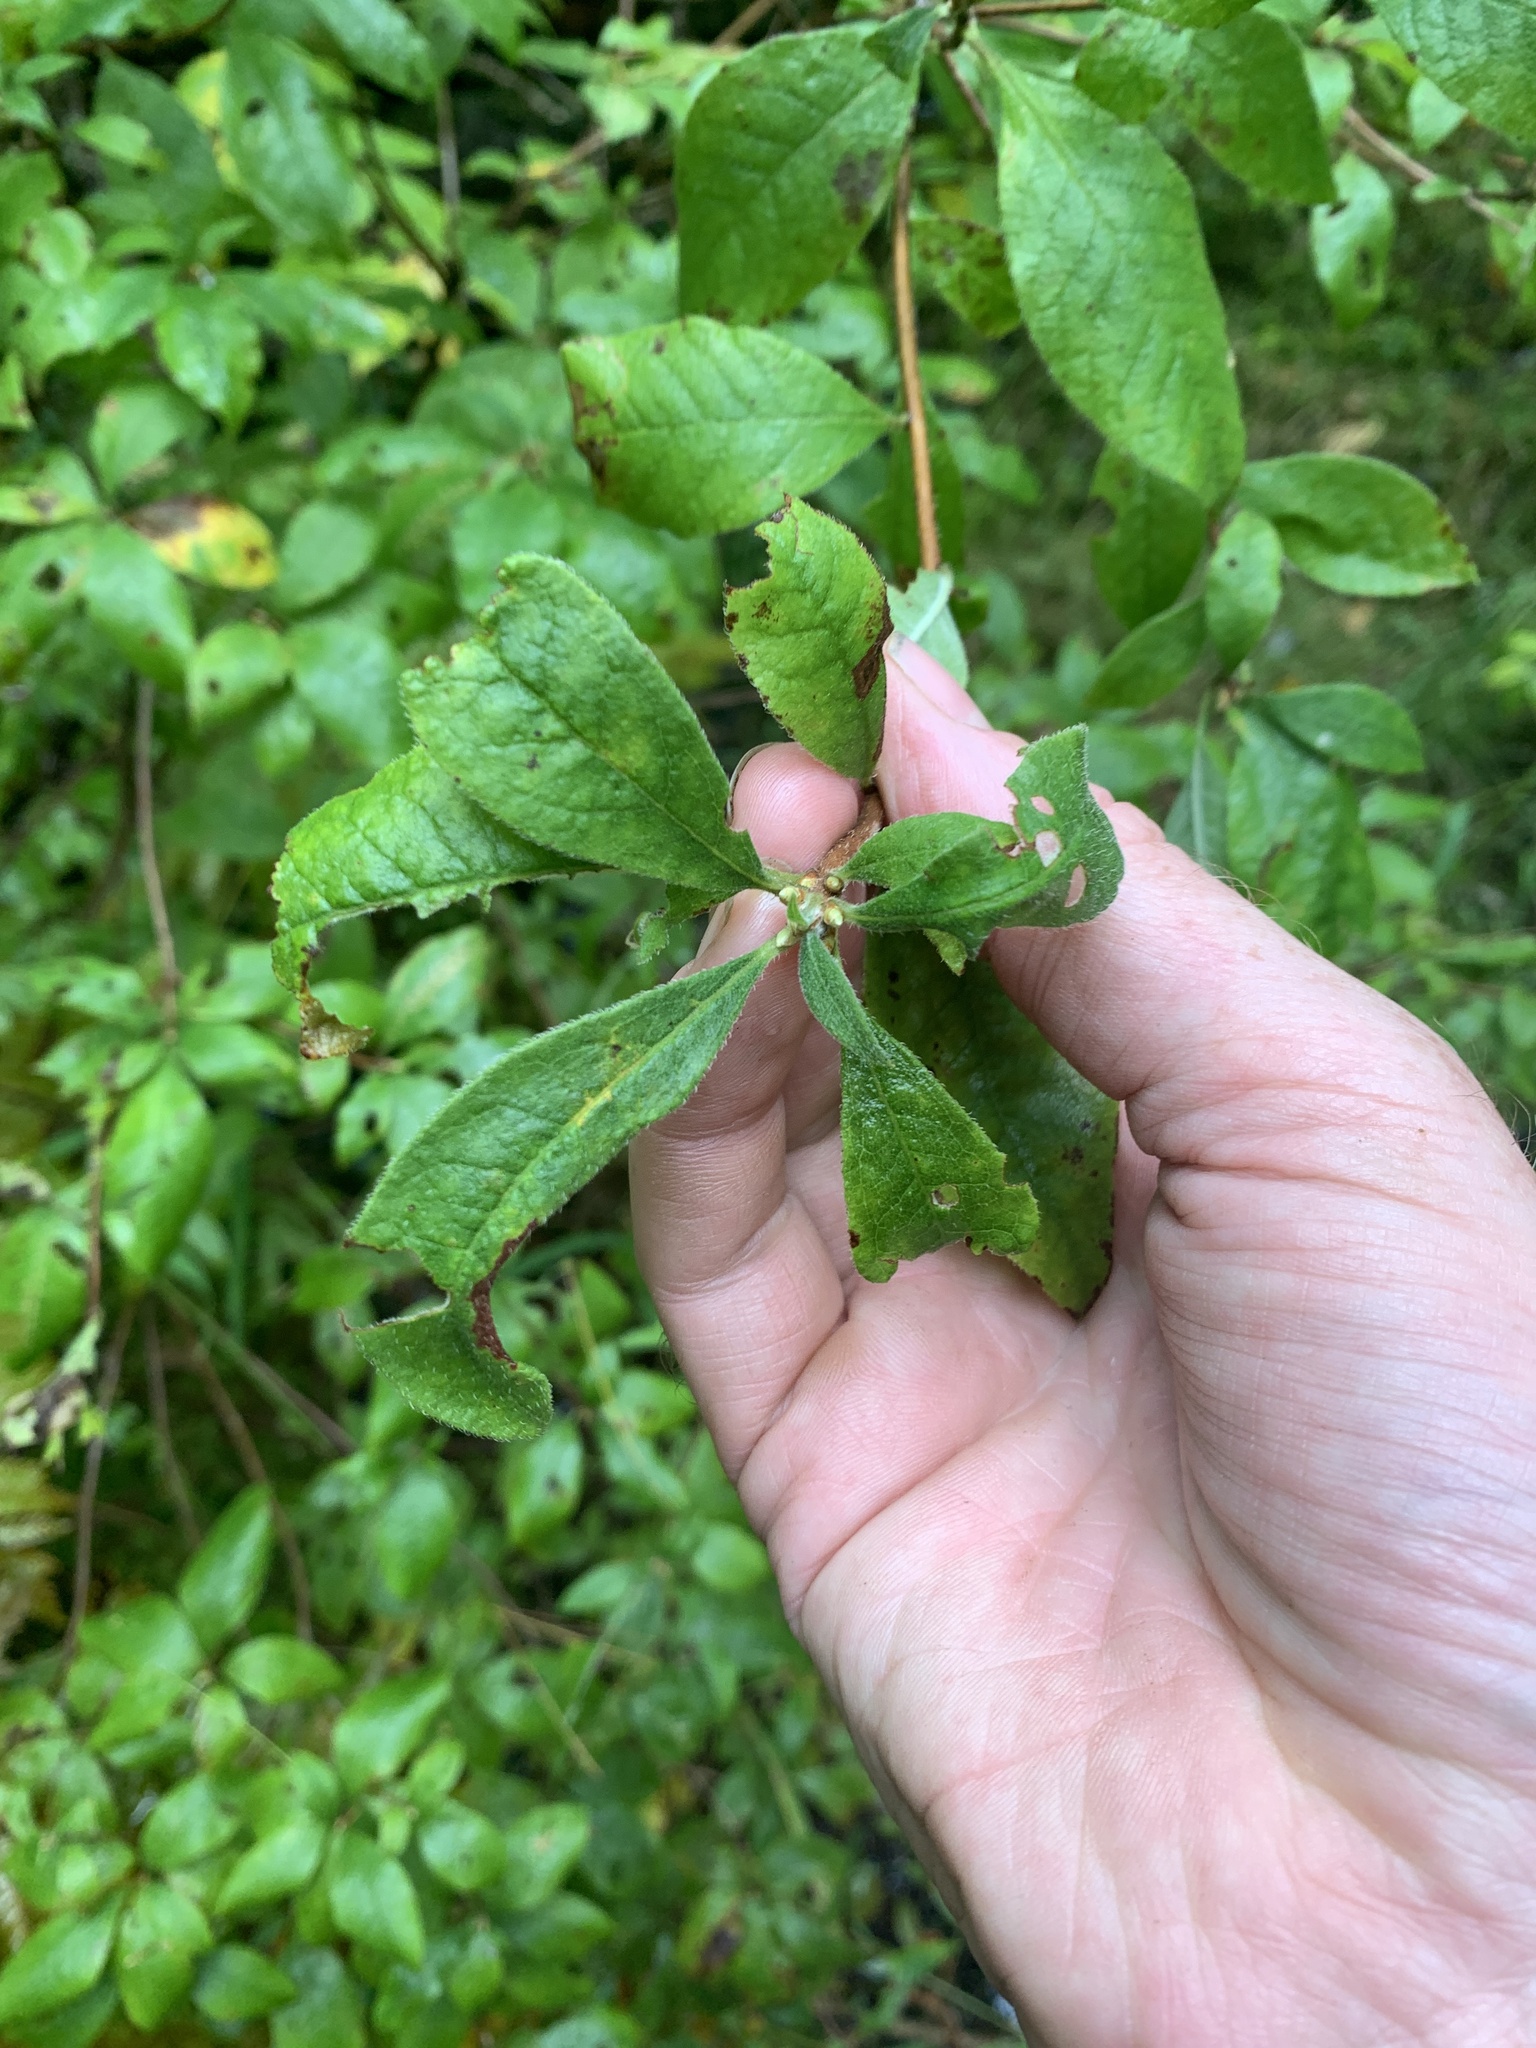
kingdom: Plantae
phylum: Tracheophyta
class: Magnoliopsida
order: Ericales
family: Ericaceae
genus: Rhododendron
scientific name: Rhododendron roseum
